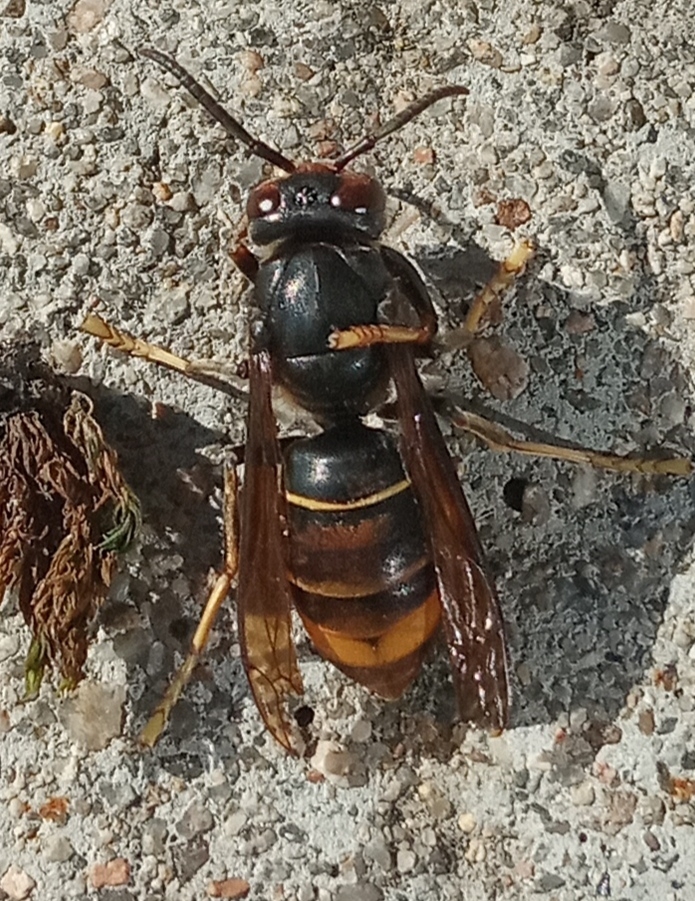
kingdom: Animalia
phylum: Arthropoda
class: Insecta
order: Hymenoptera
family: Vespidae
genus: Vespa
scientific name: Vespa velutina
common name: Asian hornet
